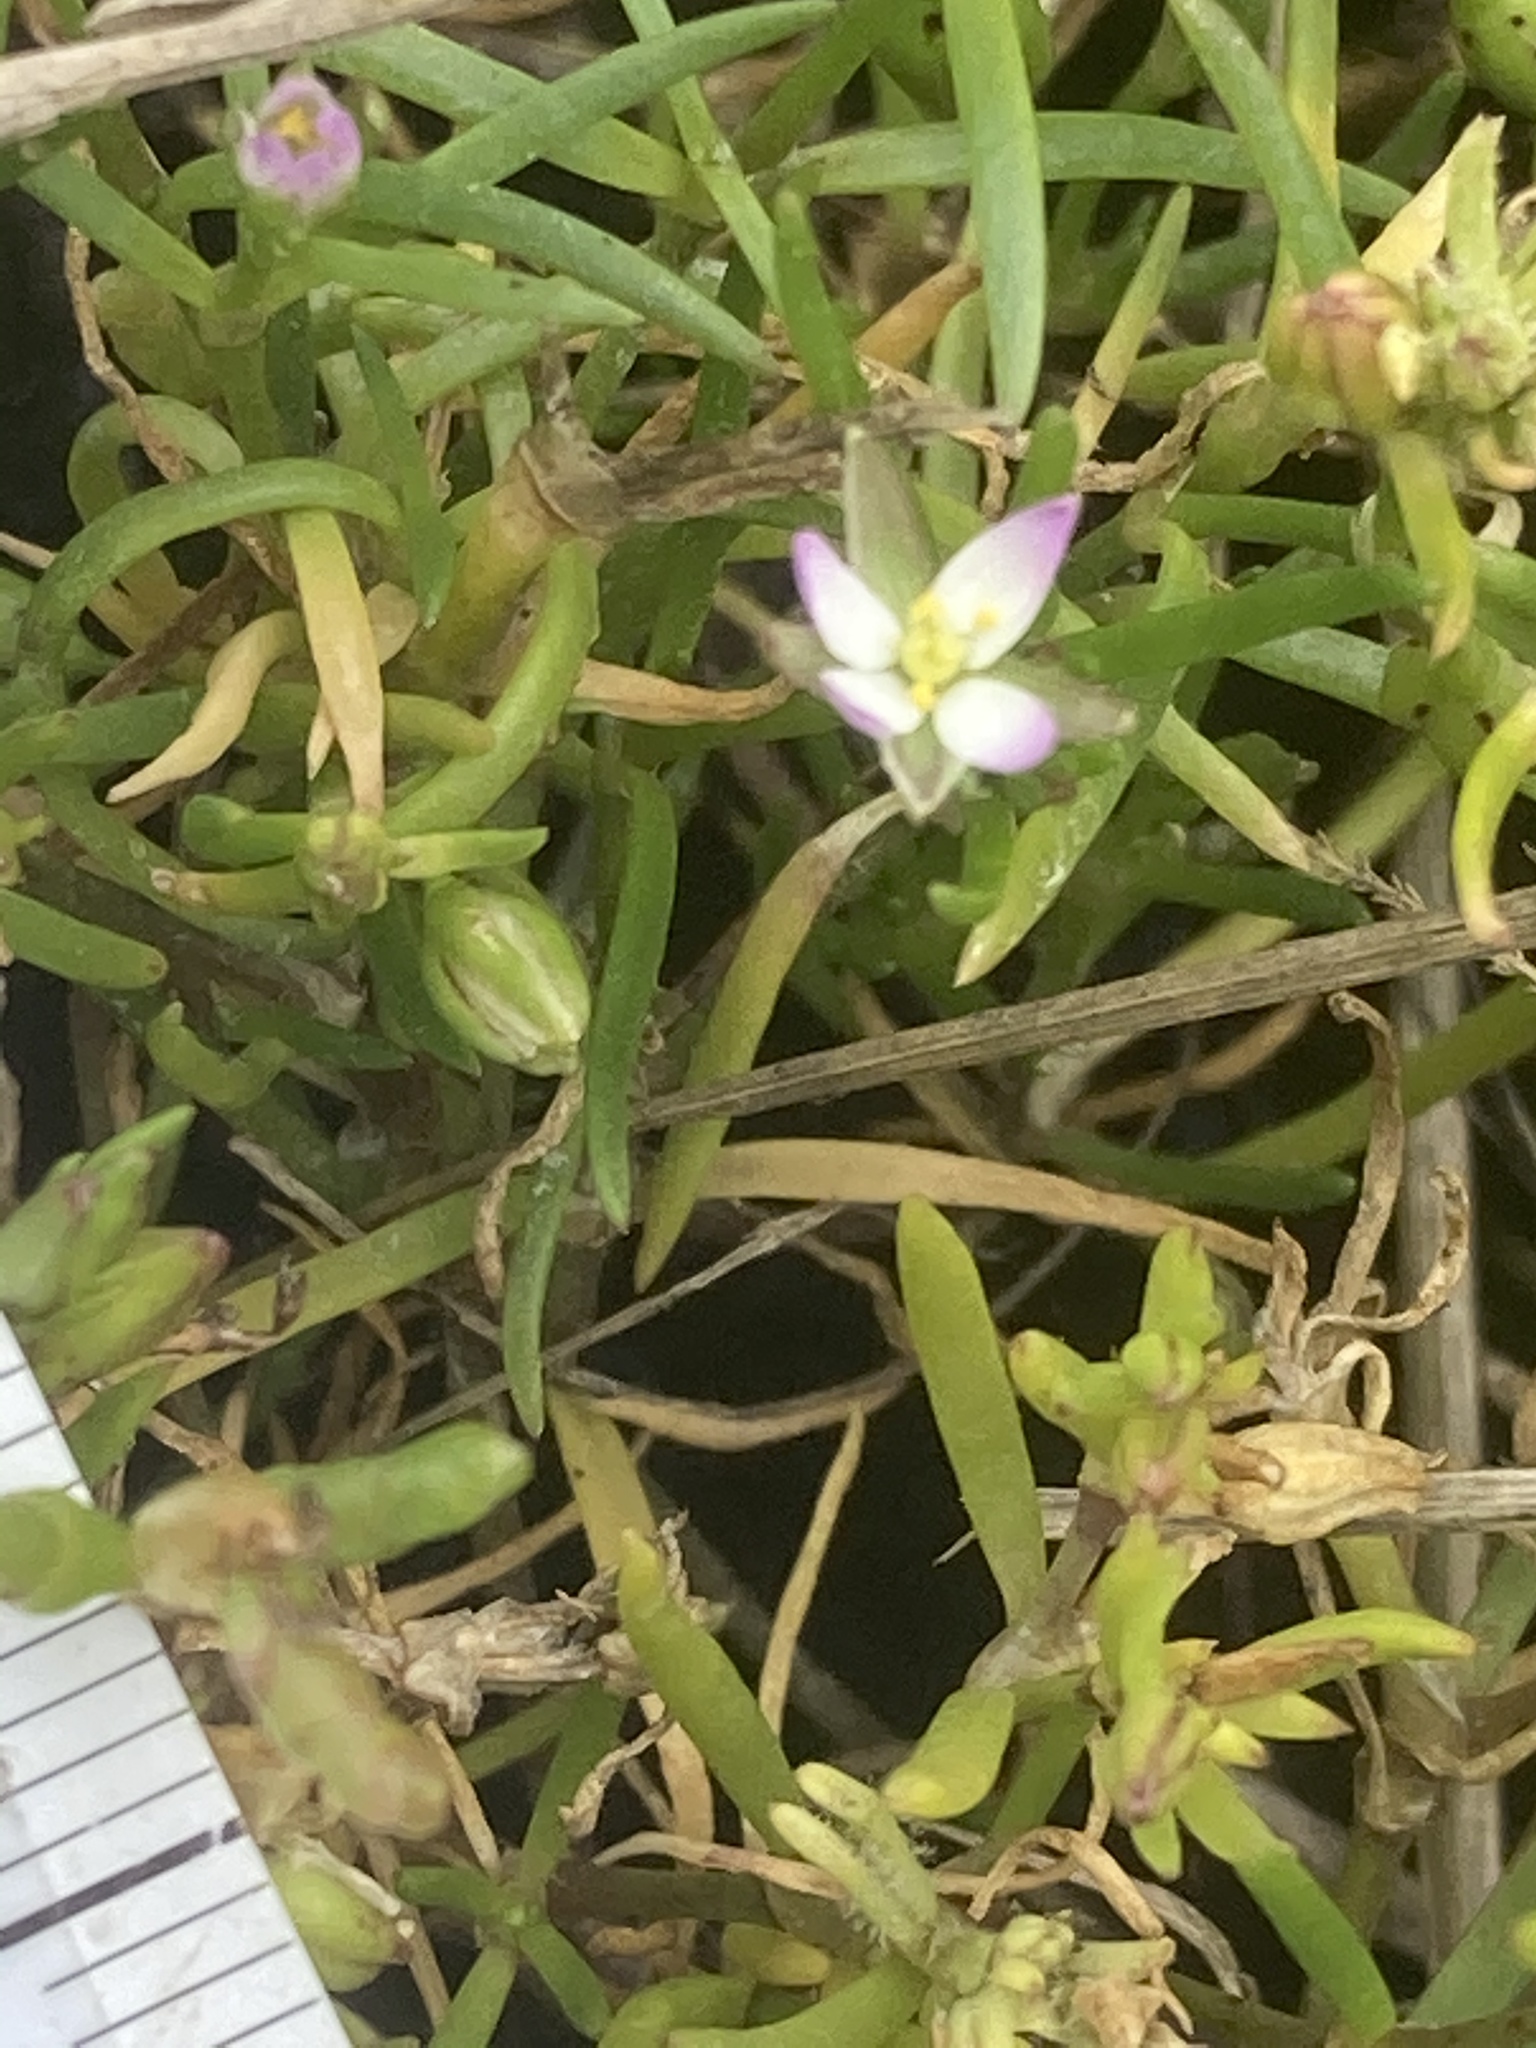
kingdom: Plantae
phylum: Tracheophyta
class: Magnoliopsida
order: Caryophyllales
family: Caryophyllaceae
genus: Spergularia
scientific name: Spergularia marina
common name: Lesser sea-spurrey
